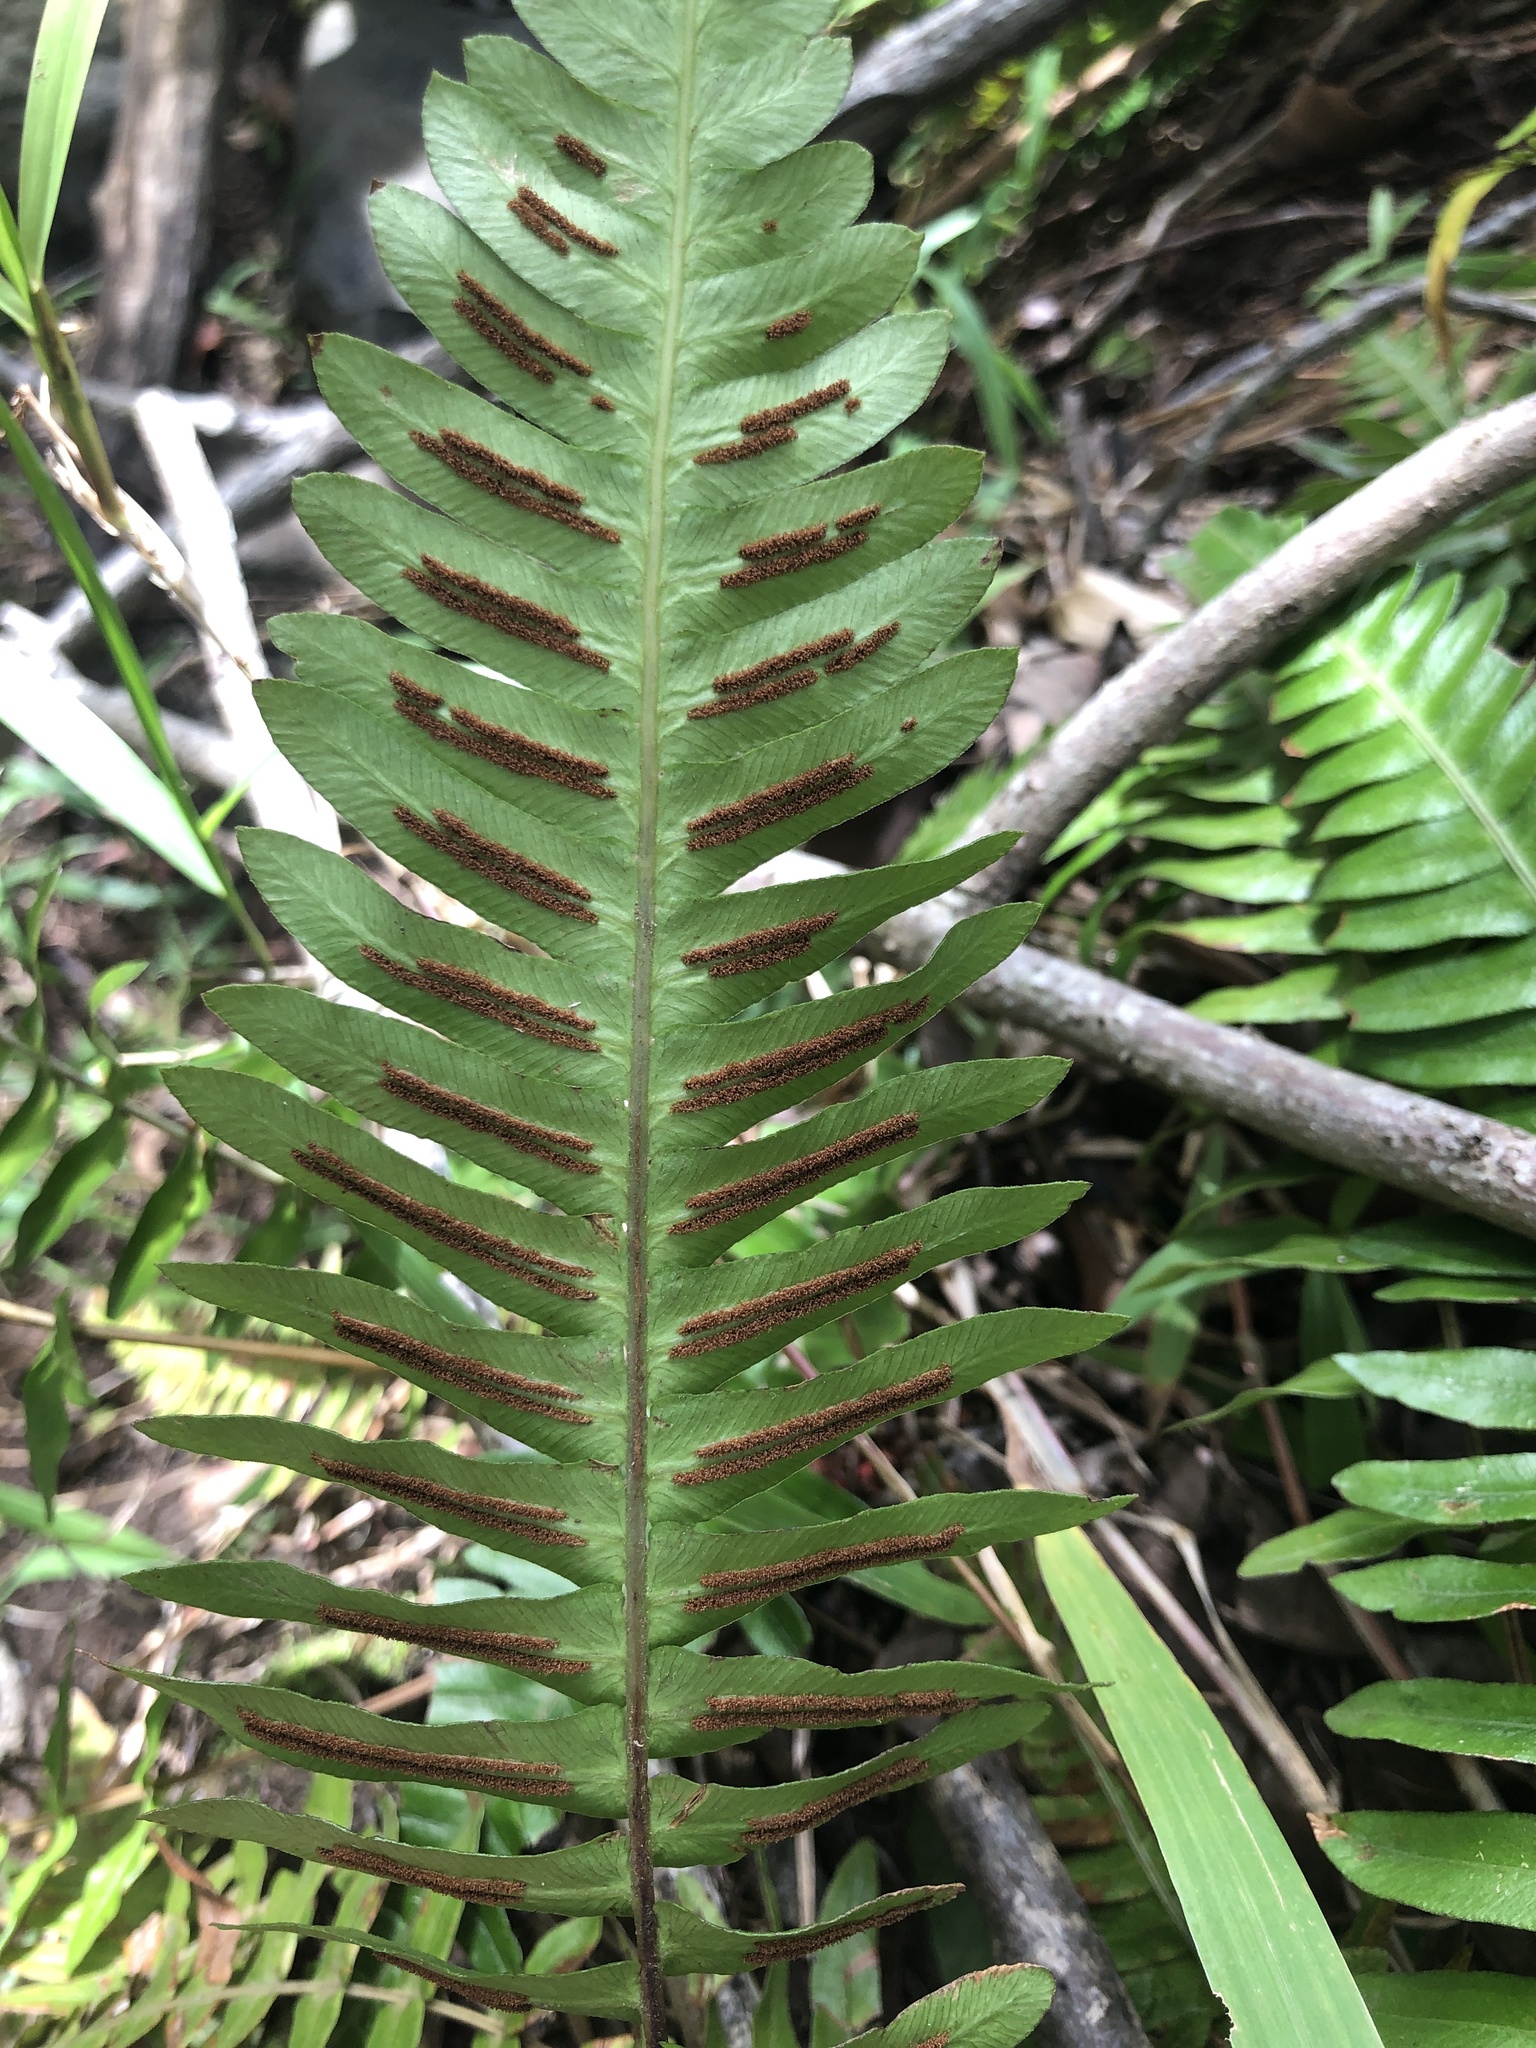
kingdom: Plantae
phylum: Tracheophyta
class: Polypodiopsida
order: Polypodiales
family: Blechnaceae
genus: Blechnum
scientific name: Blechnum appendiculatum
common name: Palm fern
